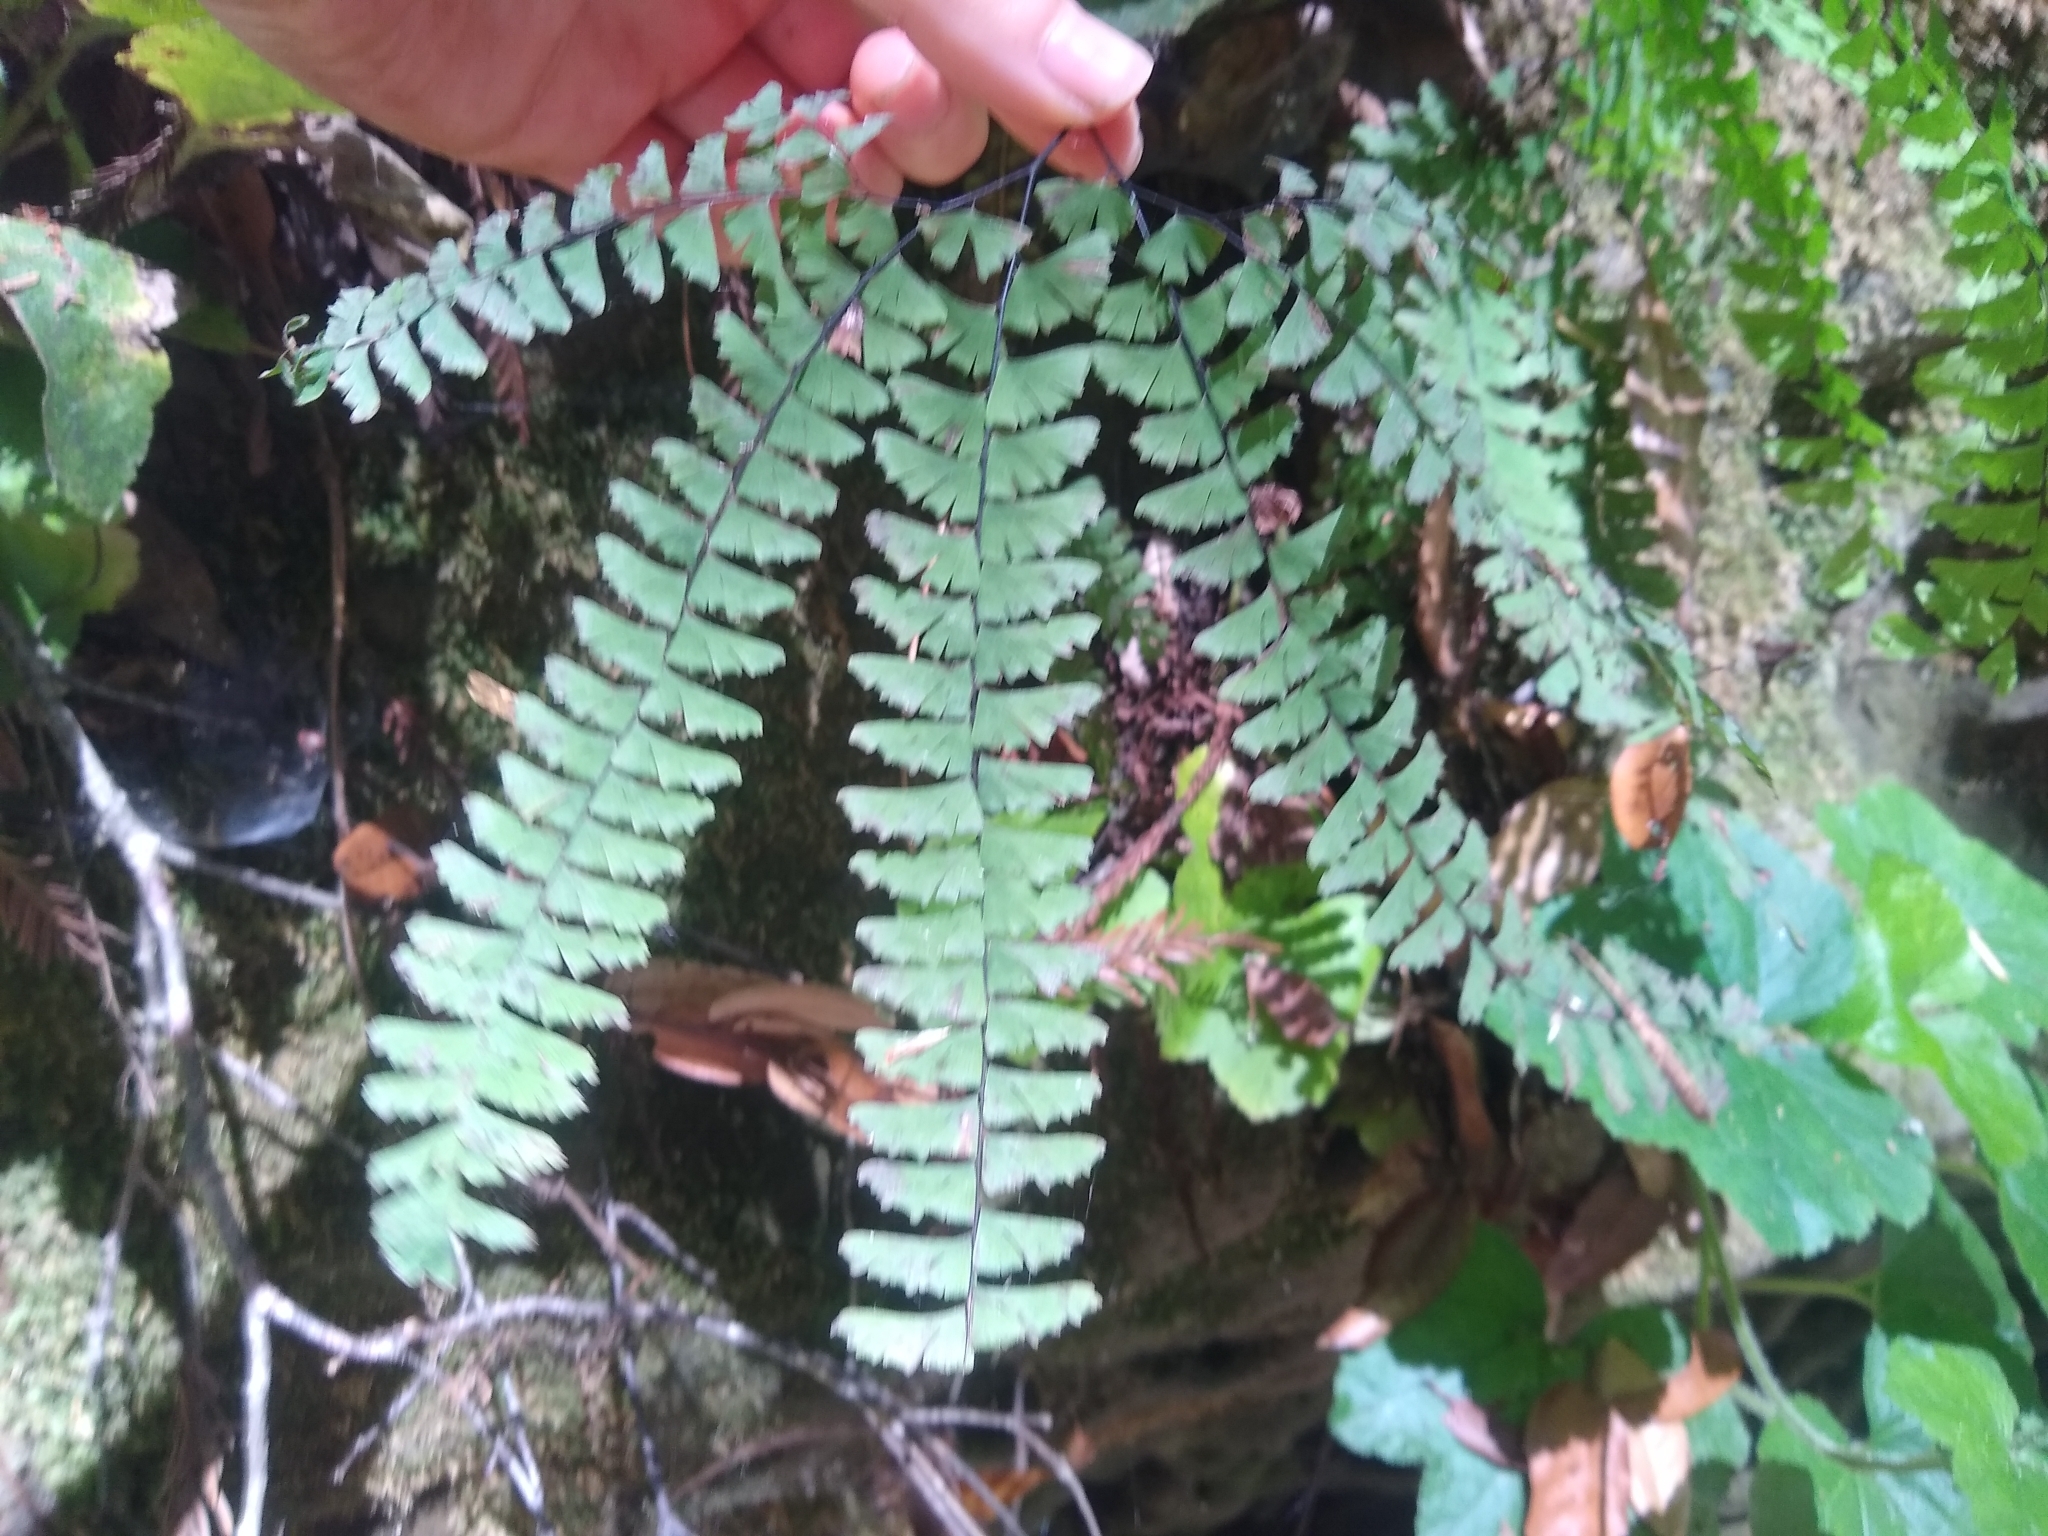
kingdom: Plantae
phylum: Tracheophyta
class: Polypodiopsida
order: Polypodiales
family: Pteridaceae
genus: Adiantum
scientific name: Adiantum aleuticum
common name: Aleutian maidenhair fern
